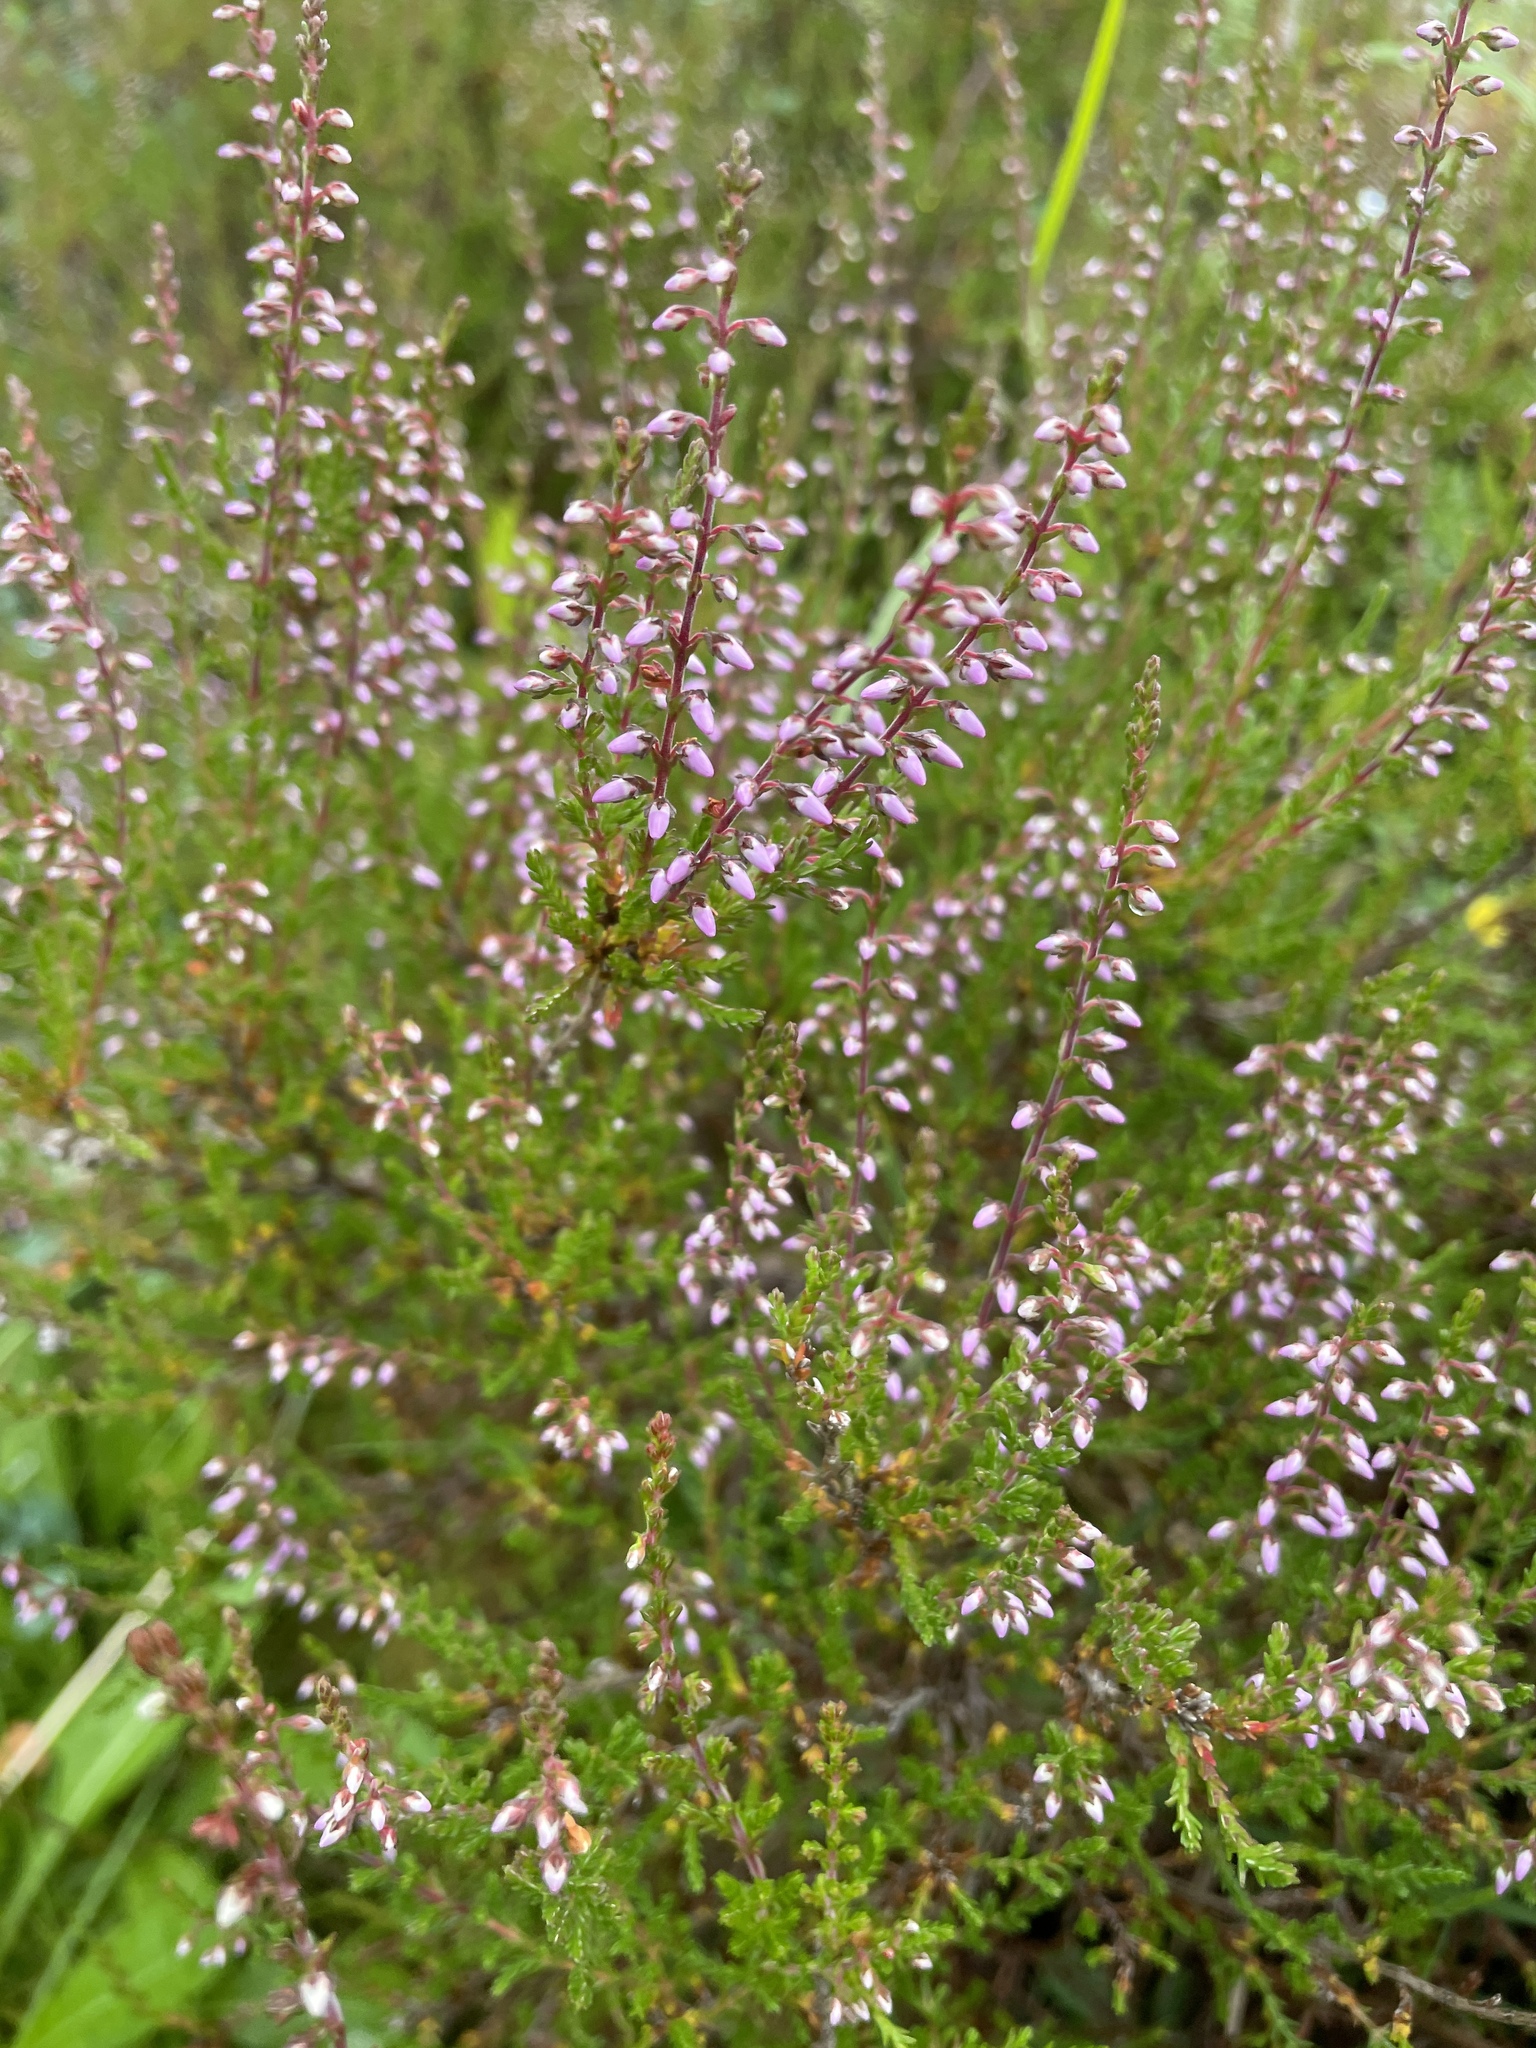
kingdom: Plantae
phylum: Tracheophyta
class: Magnoliopsida
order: Ericales
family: Ericaceae
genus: Calluna
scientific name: Calluna vulgaris
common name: Heather
